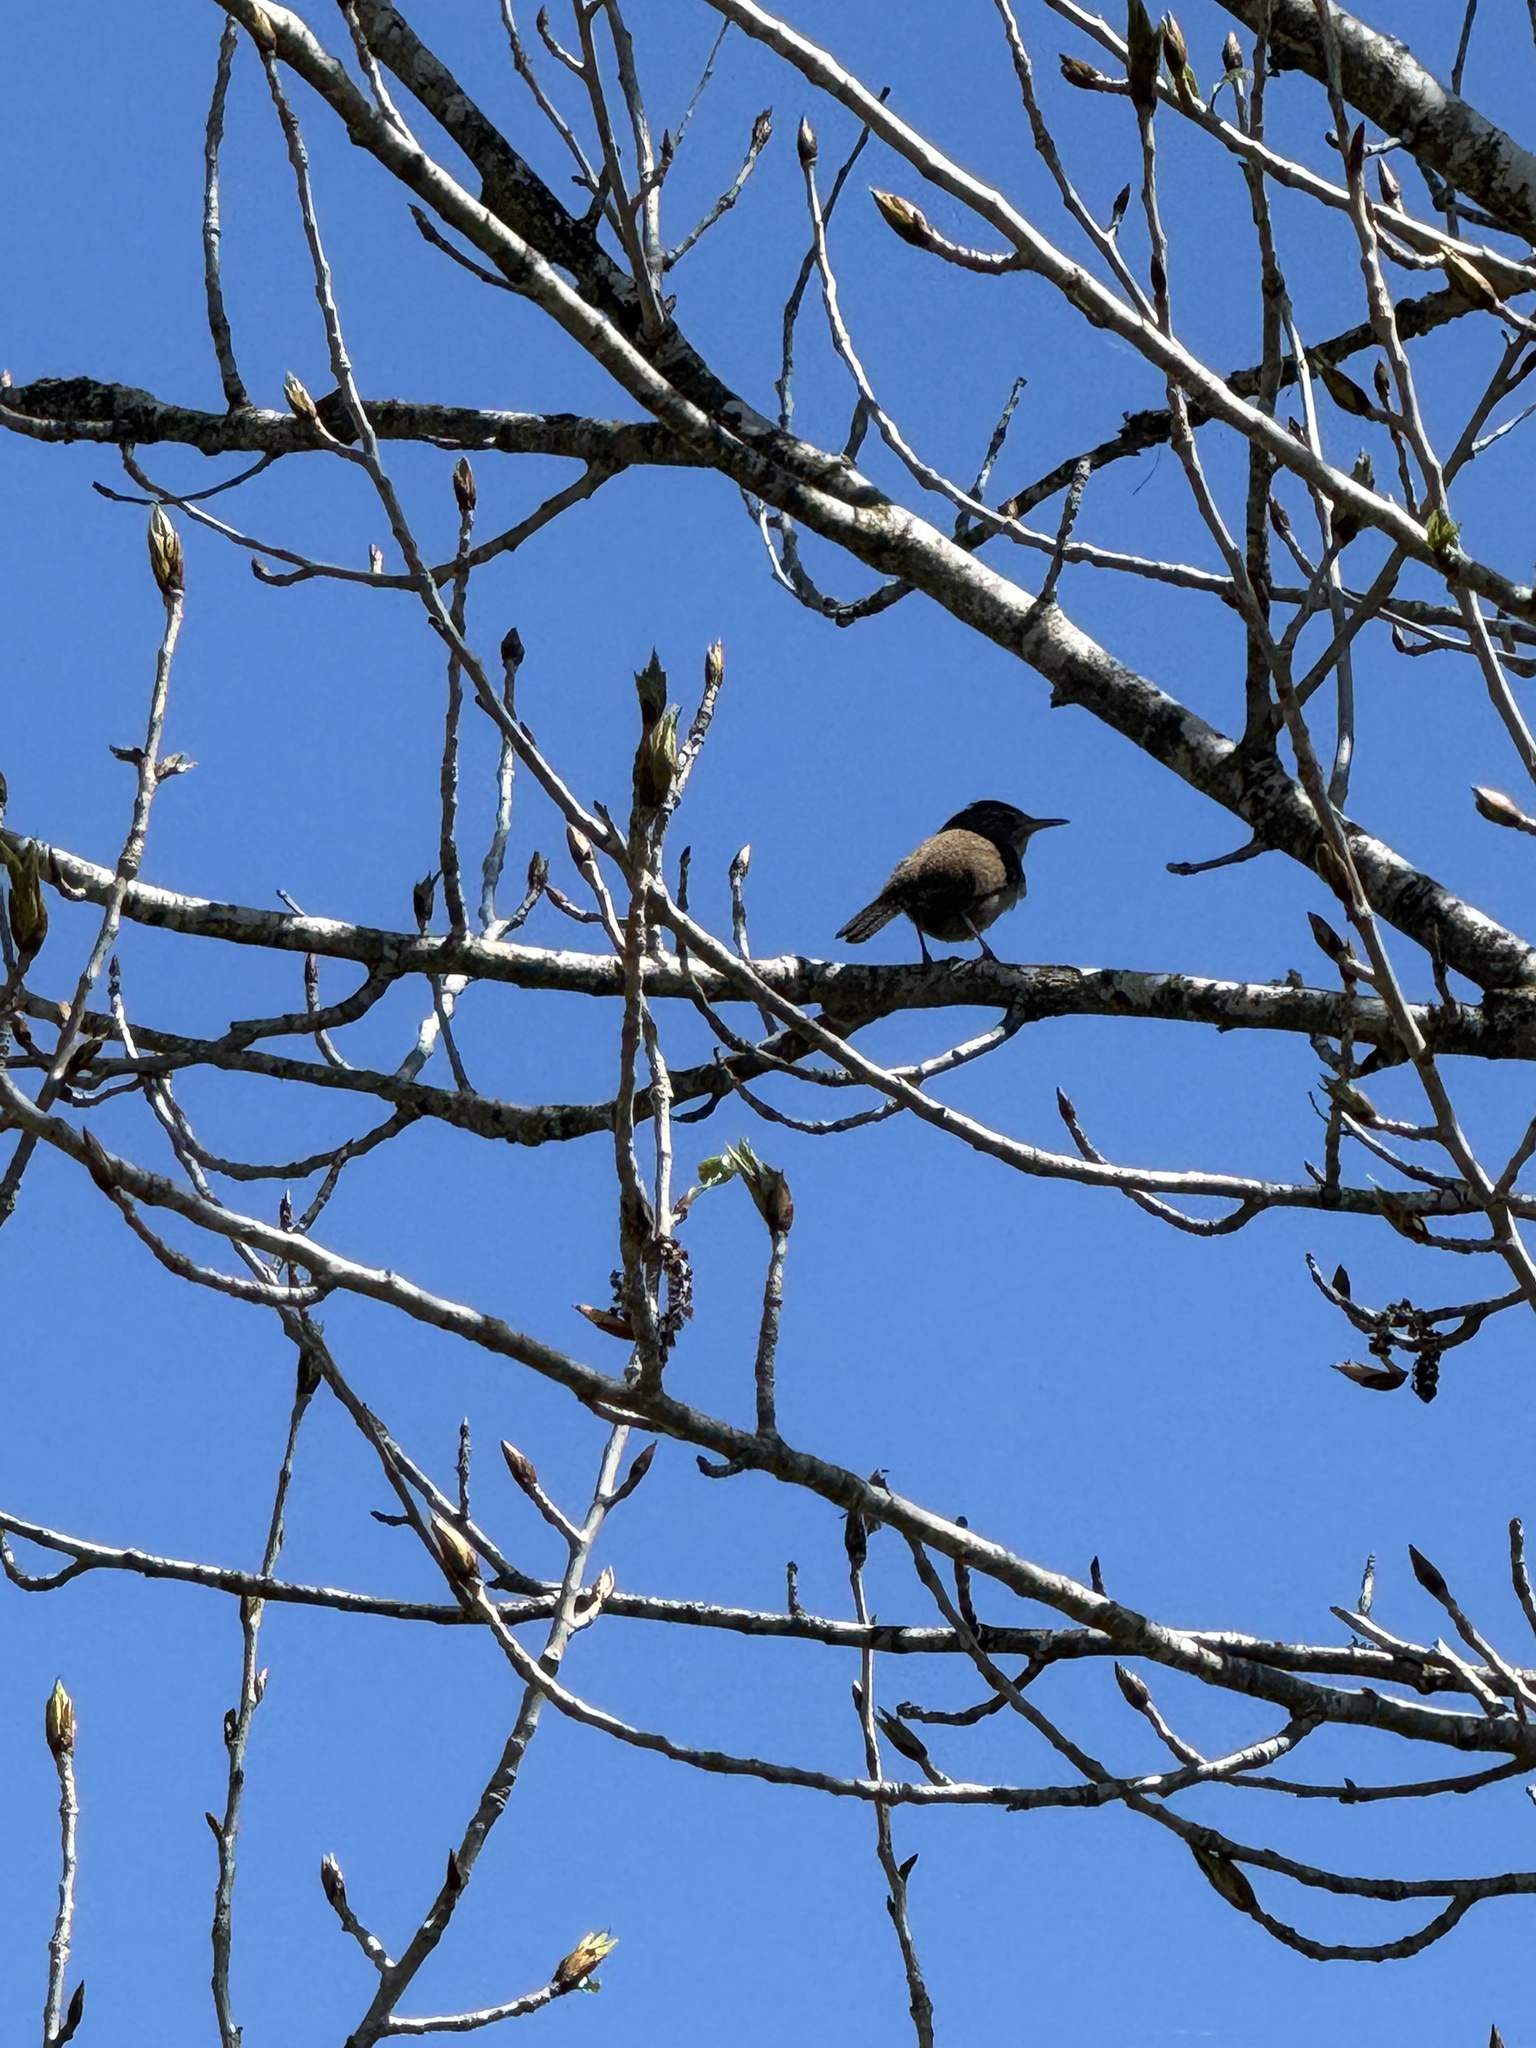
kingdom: Animalia
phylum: Chordata
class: Aves
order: Passeriformes
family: Troglodytidae
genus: Troglodytes
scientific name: Troglodytes aedon
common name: House wren
